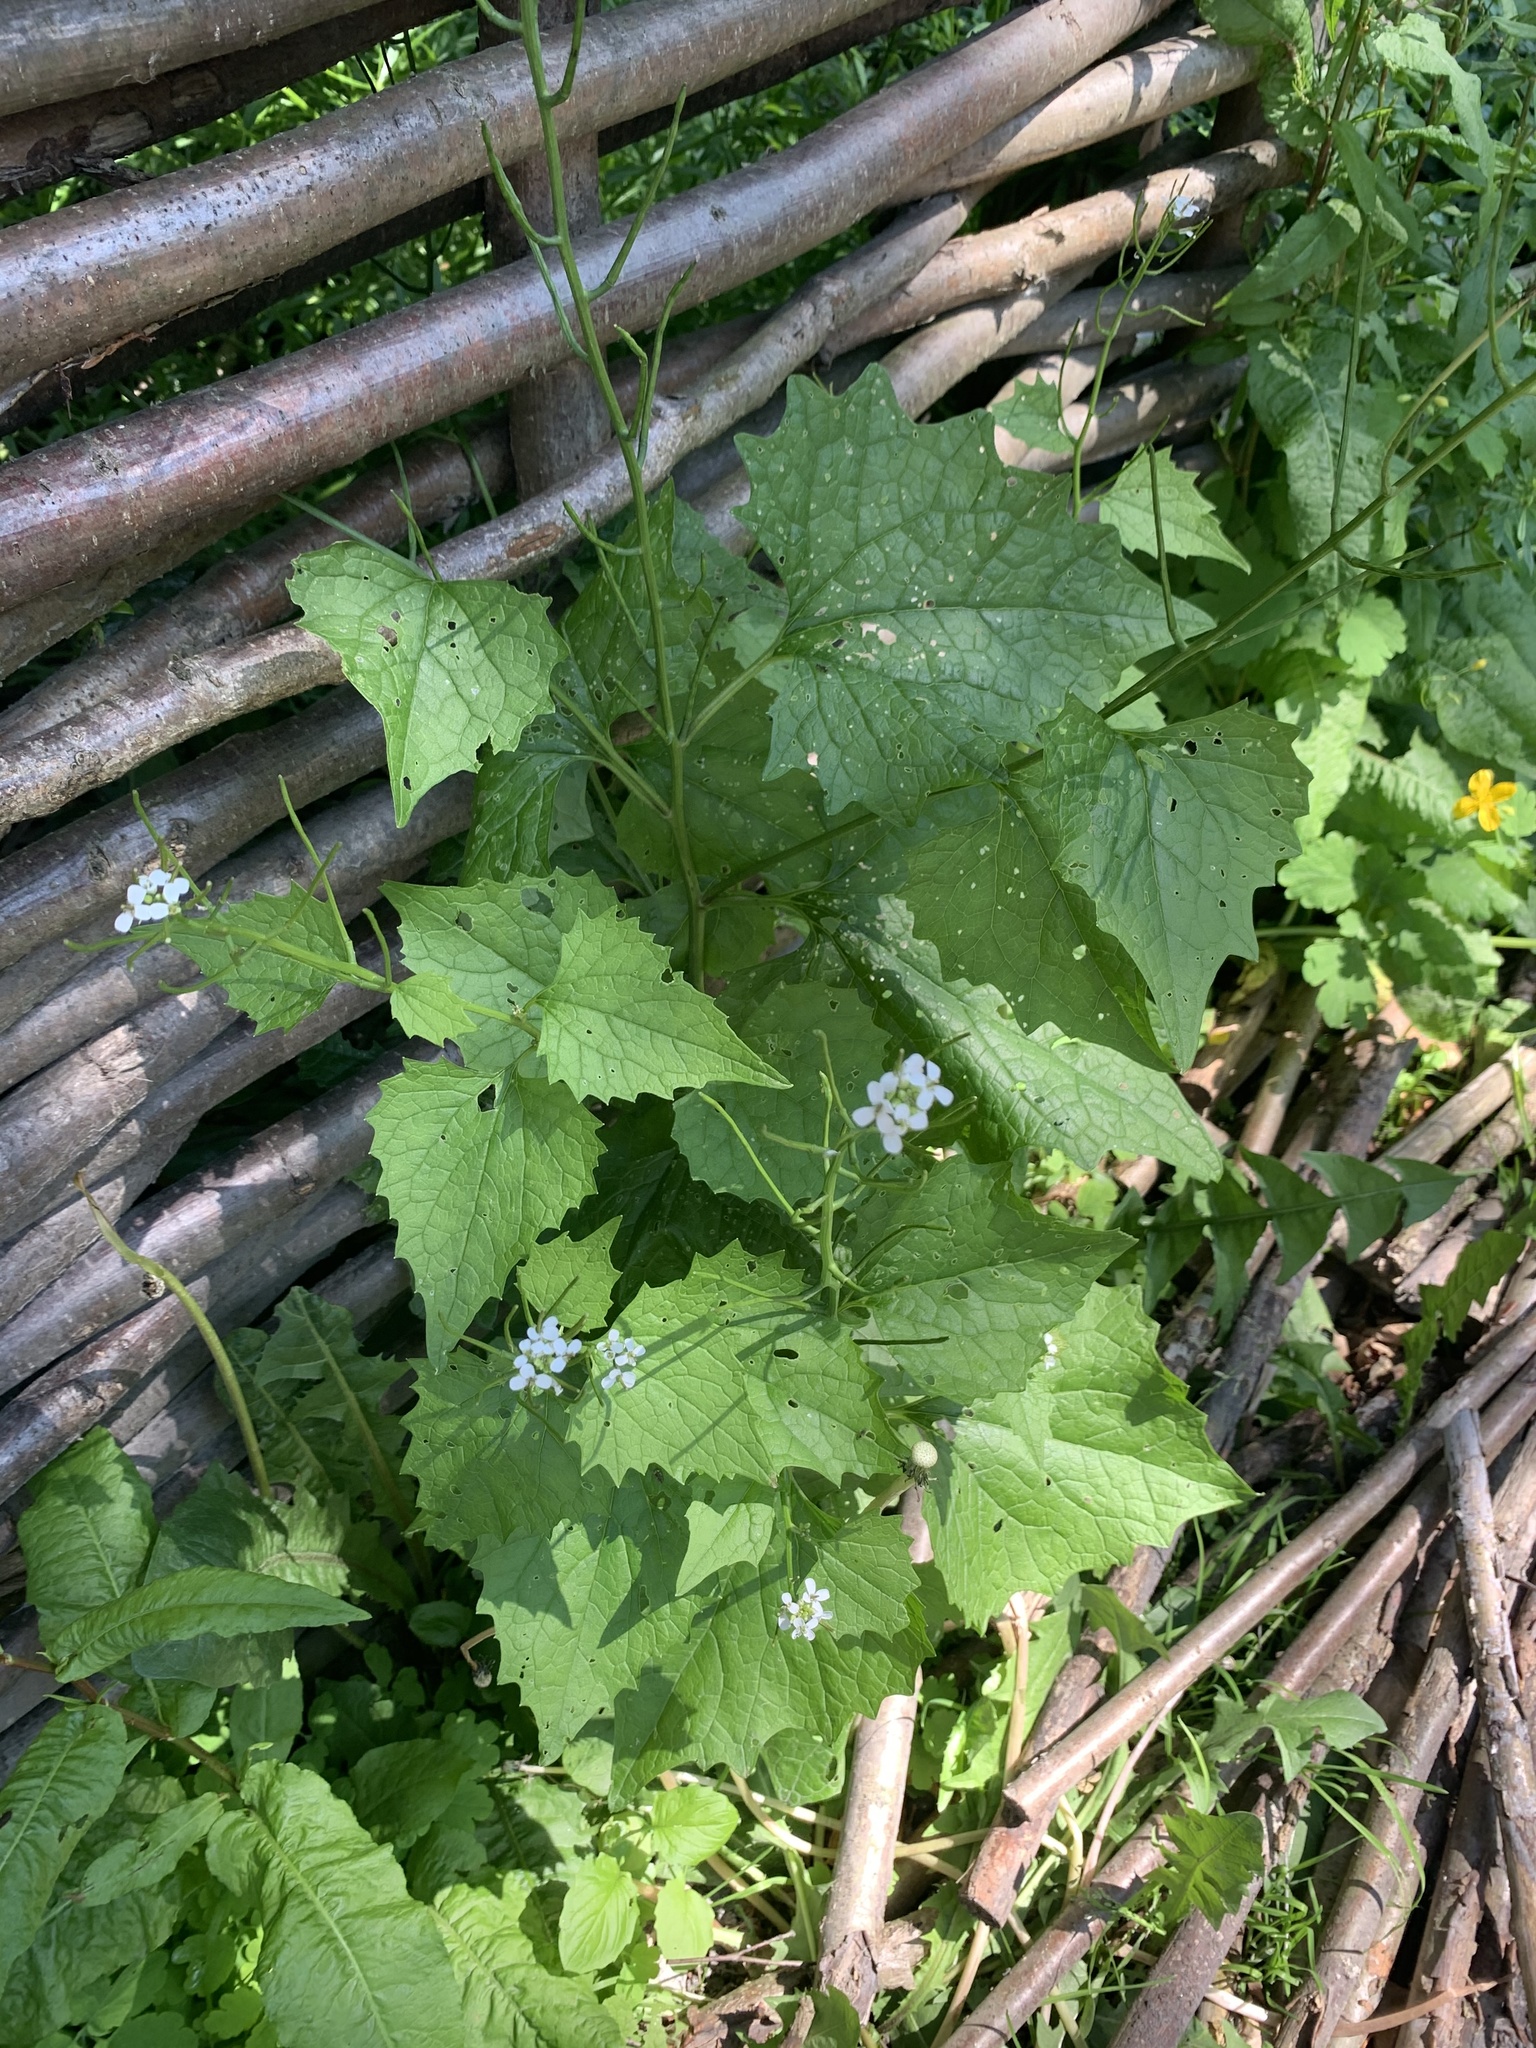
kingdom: Plantae
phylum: Tracheophyta
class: Magnoliopsida
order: Brassicales
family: Brassicaceae
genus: Alliaria
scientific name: Alliaria petiolata
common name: Garlic mustard
